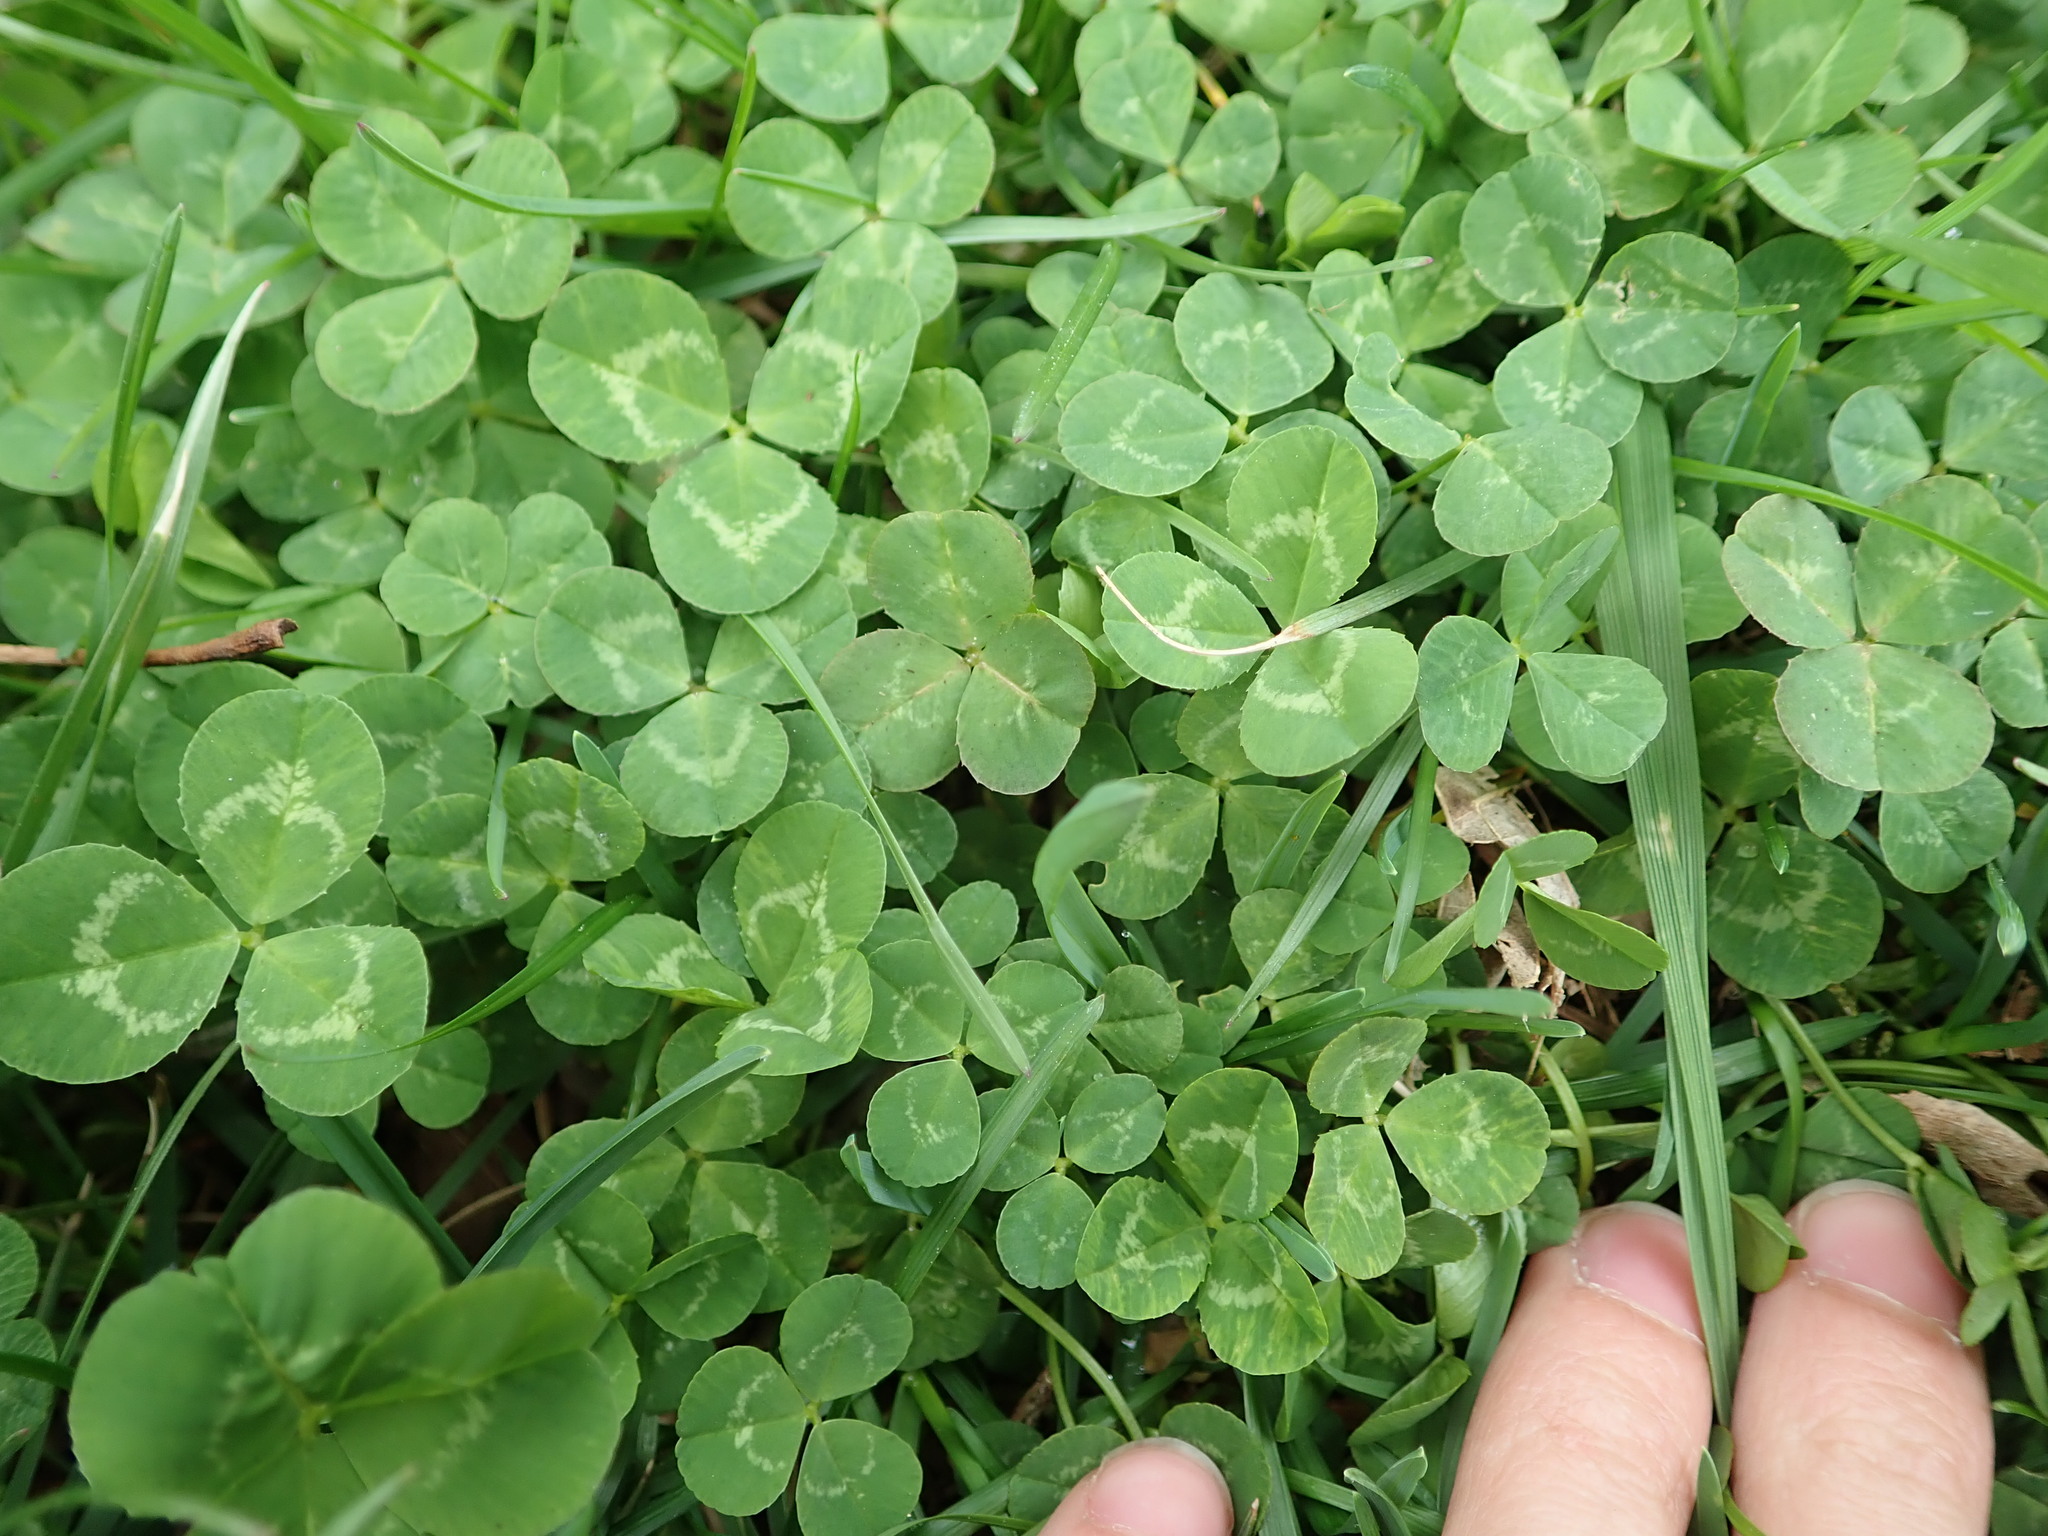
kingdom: Plantae
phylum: Tracheophyta
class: Magnoliopsida
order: Fabales
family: Fabaceae
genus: Trifolium
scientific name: Trifolium repens
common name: White clover
